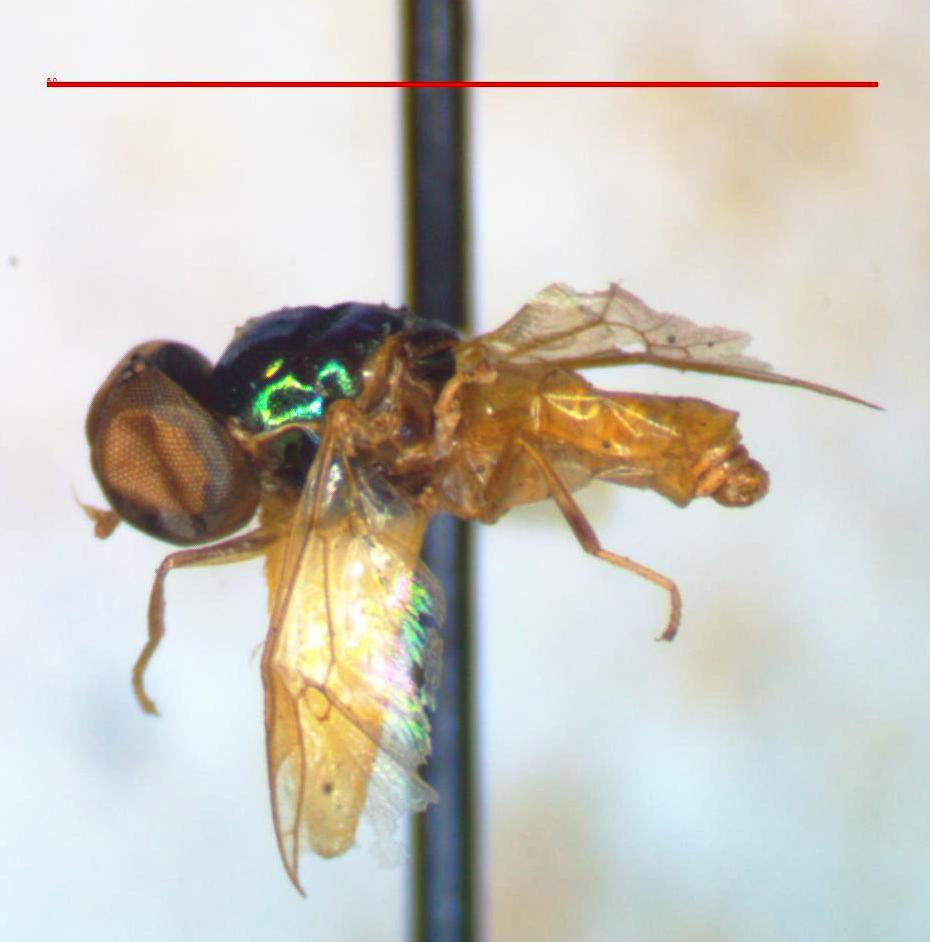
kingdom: Animalia
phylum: Arthropoda
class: Insecta
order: Diptera
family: Stratiomyidae
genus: Microchrysa
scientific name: Microchrysa bicolor
